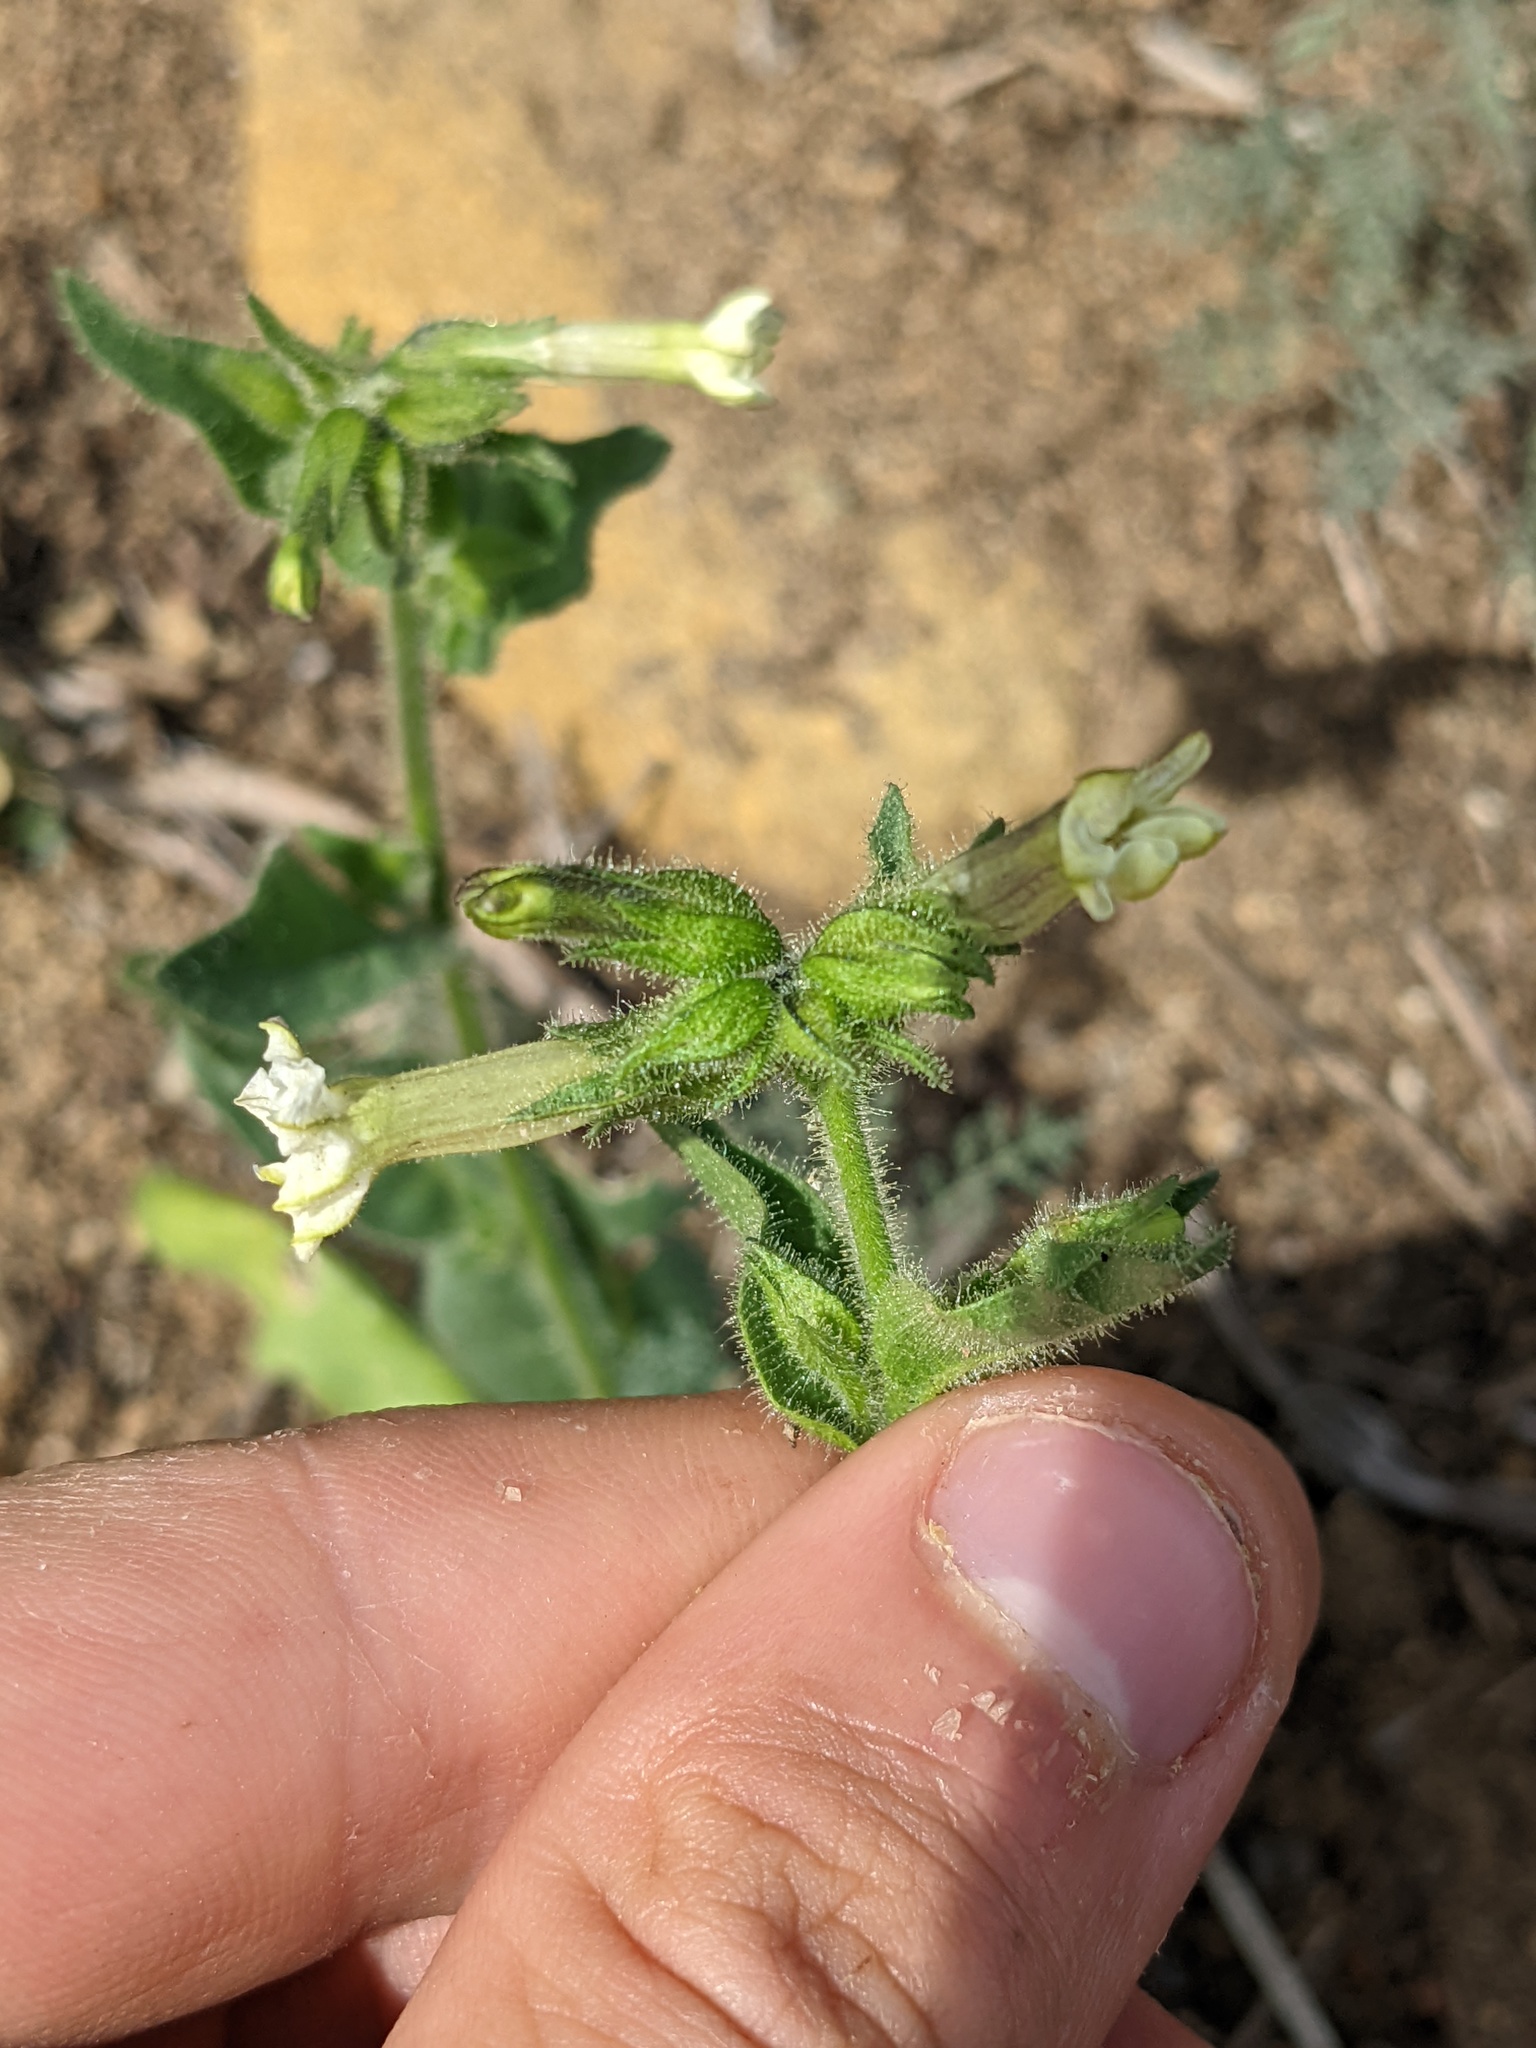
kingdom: Plantae
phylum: Tracheophyta
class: Magnoliopsida
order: Solanales
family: Solanaceae
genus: Nicotiana
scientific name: Nicotiana clevelandii
